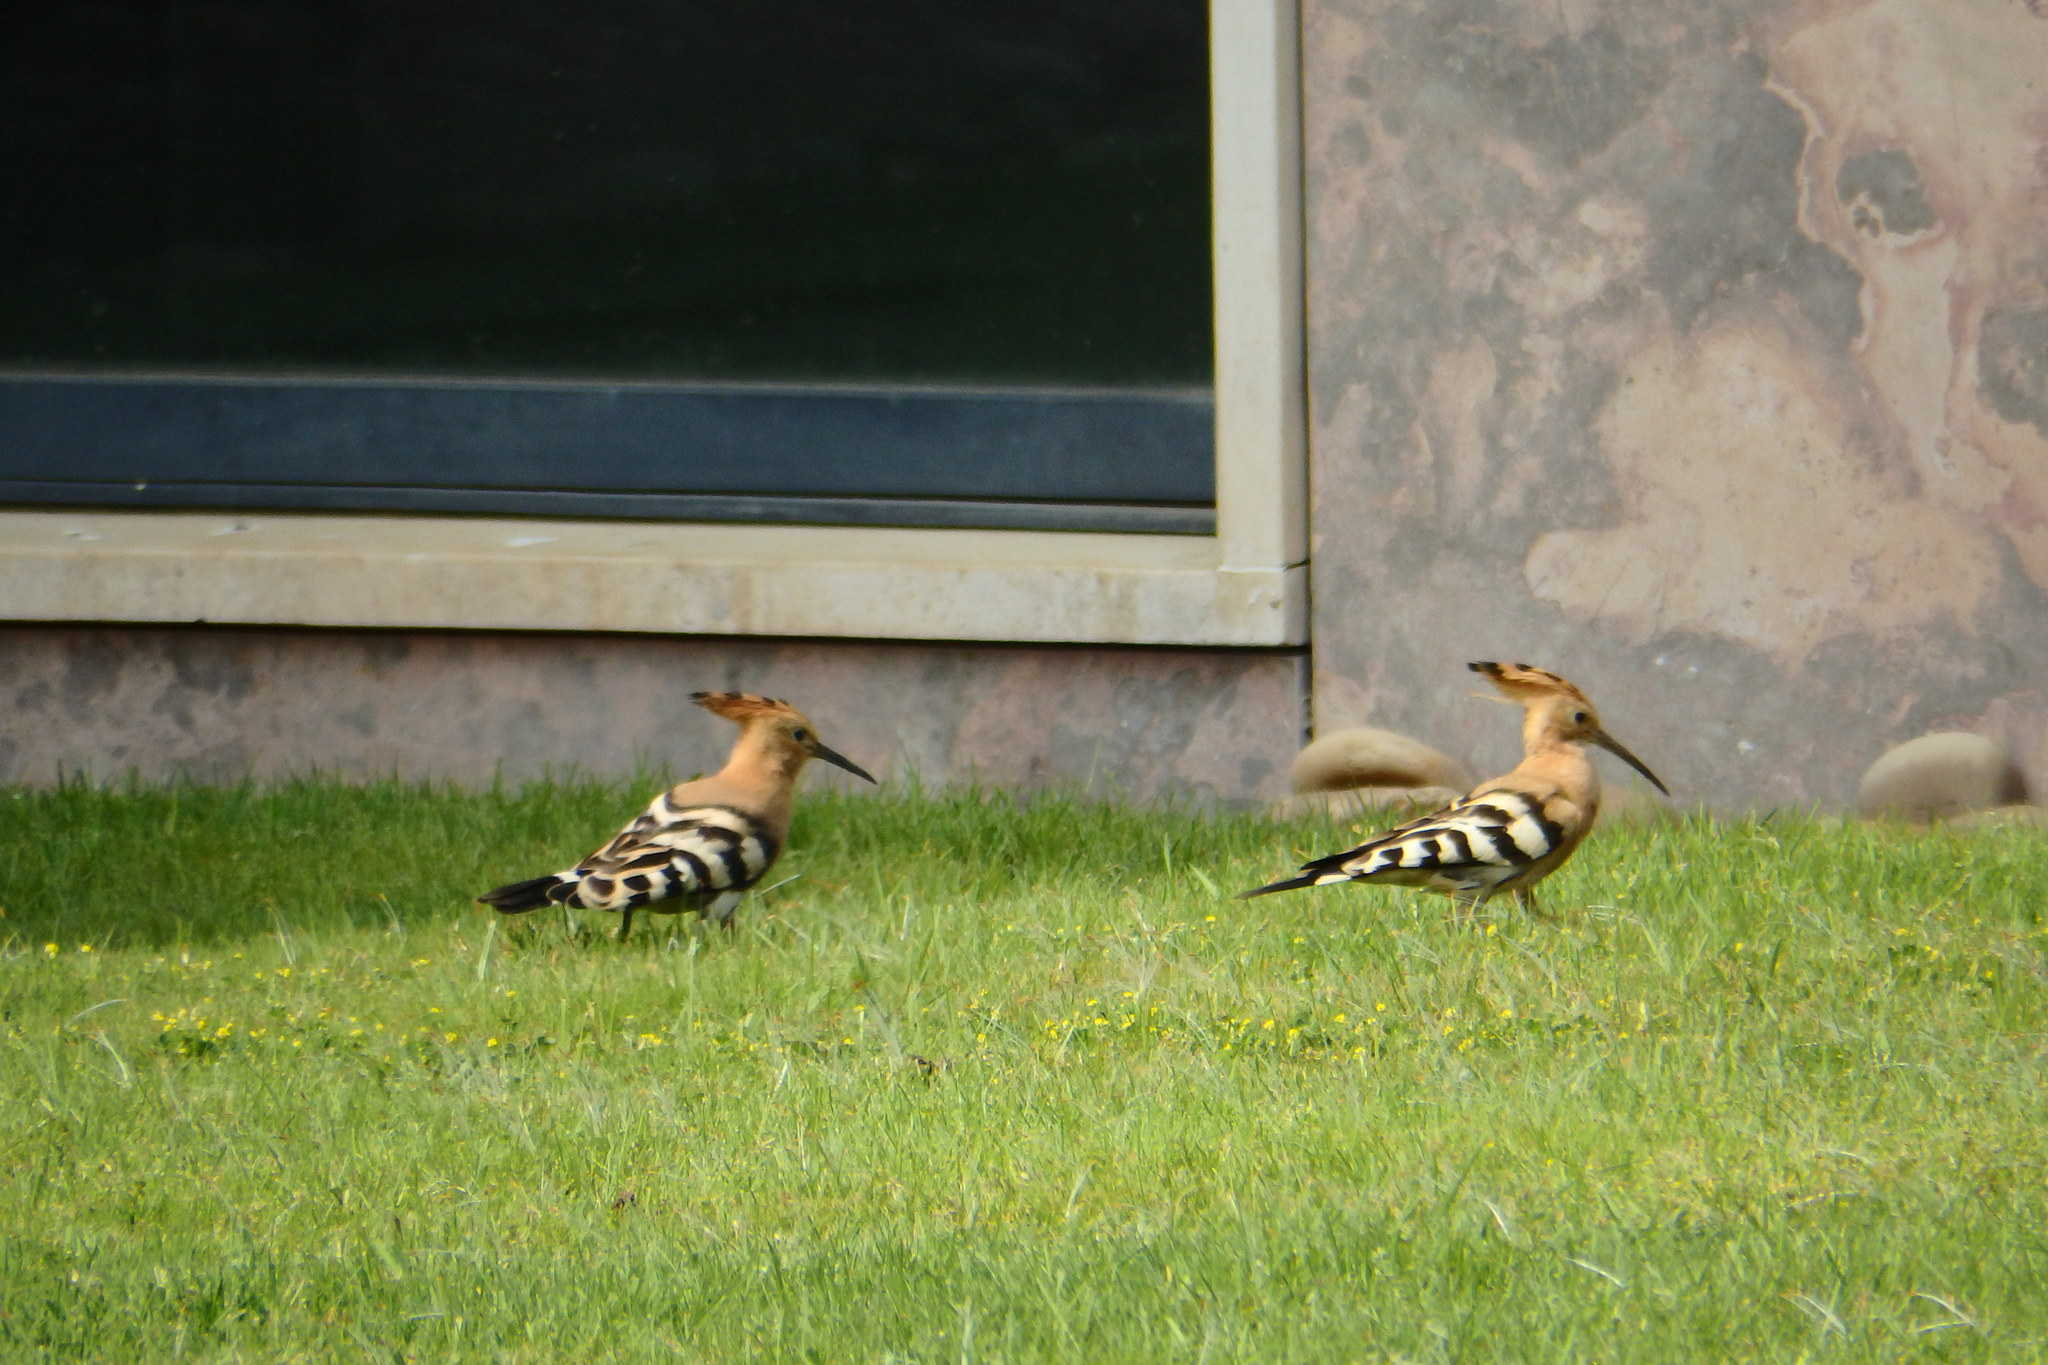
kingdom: Animalia
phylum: Chordata
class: Aves
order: Bucerotiformes
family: Upupidae
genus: Upupa
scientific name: Upupa epops
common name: Eurasian hoopoe
